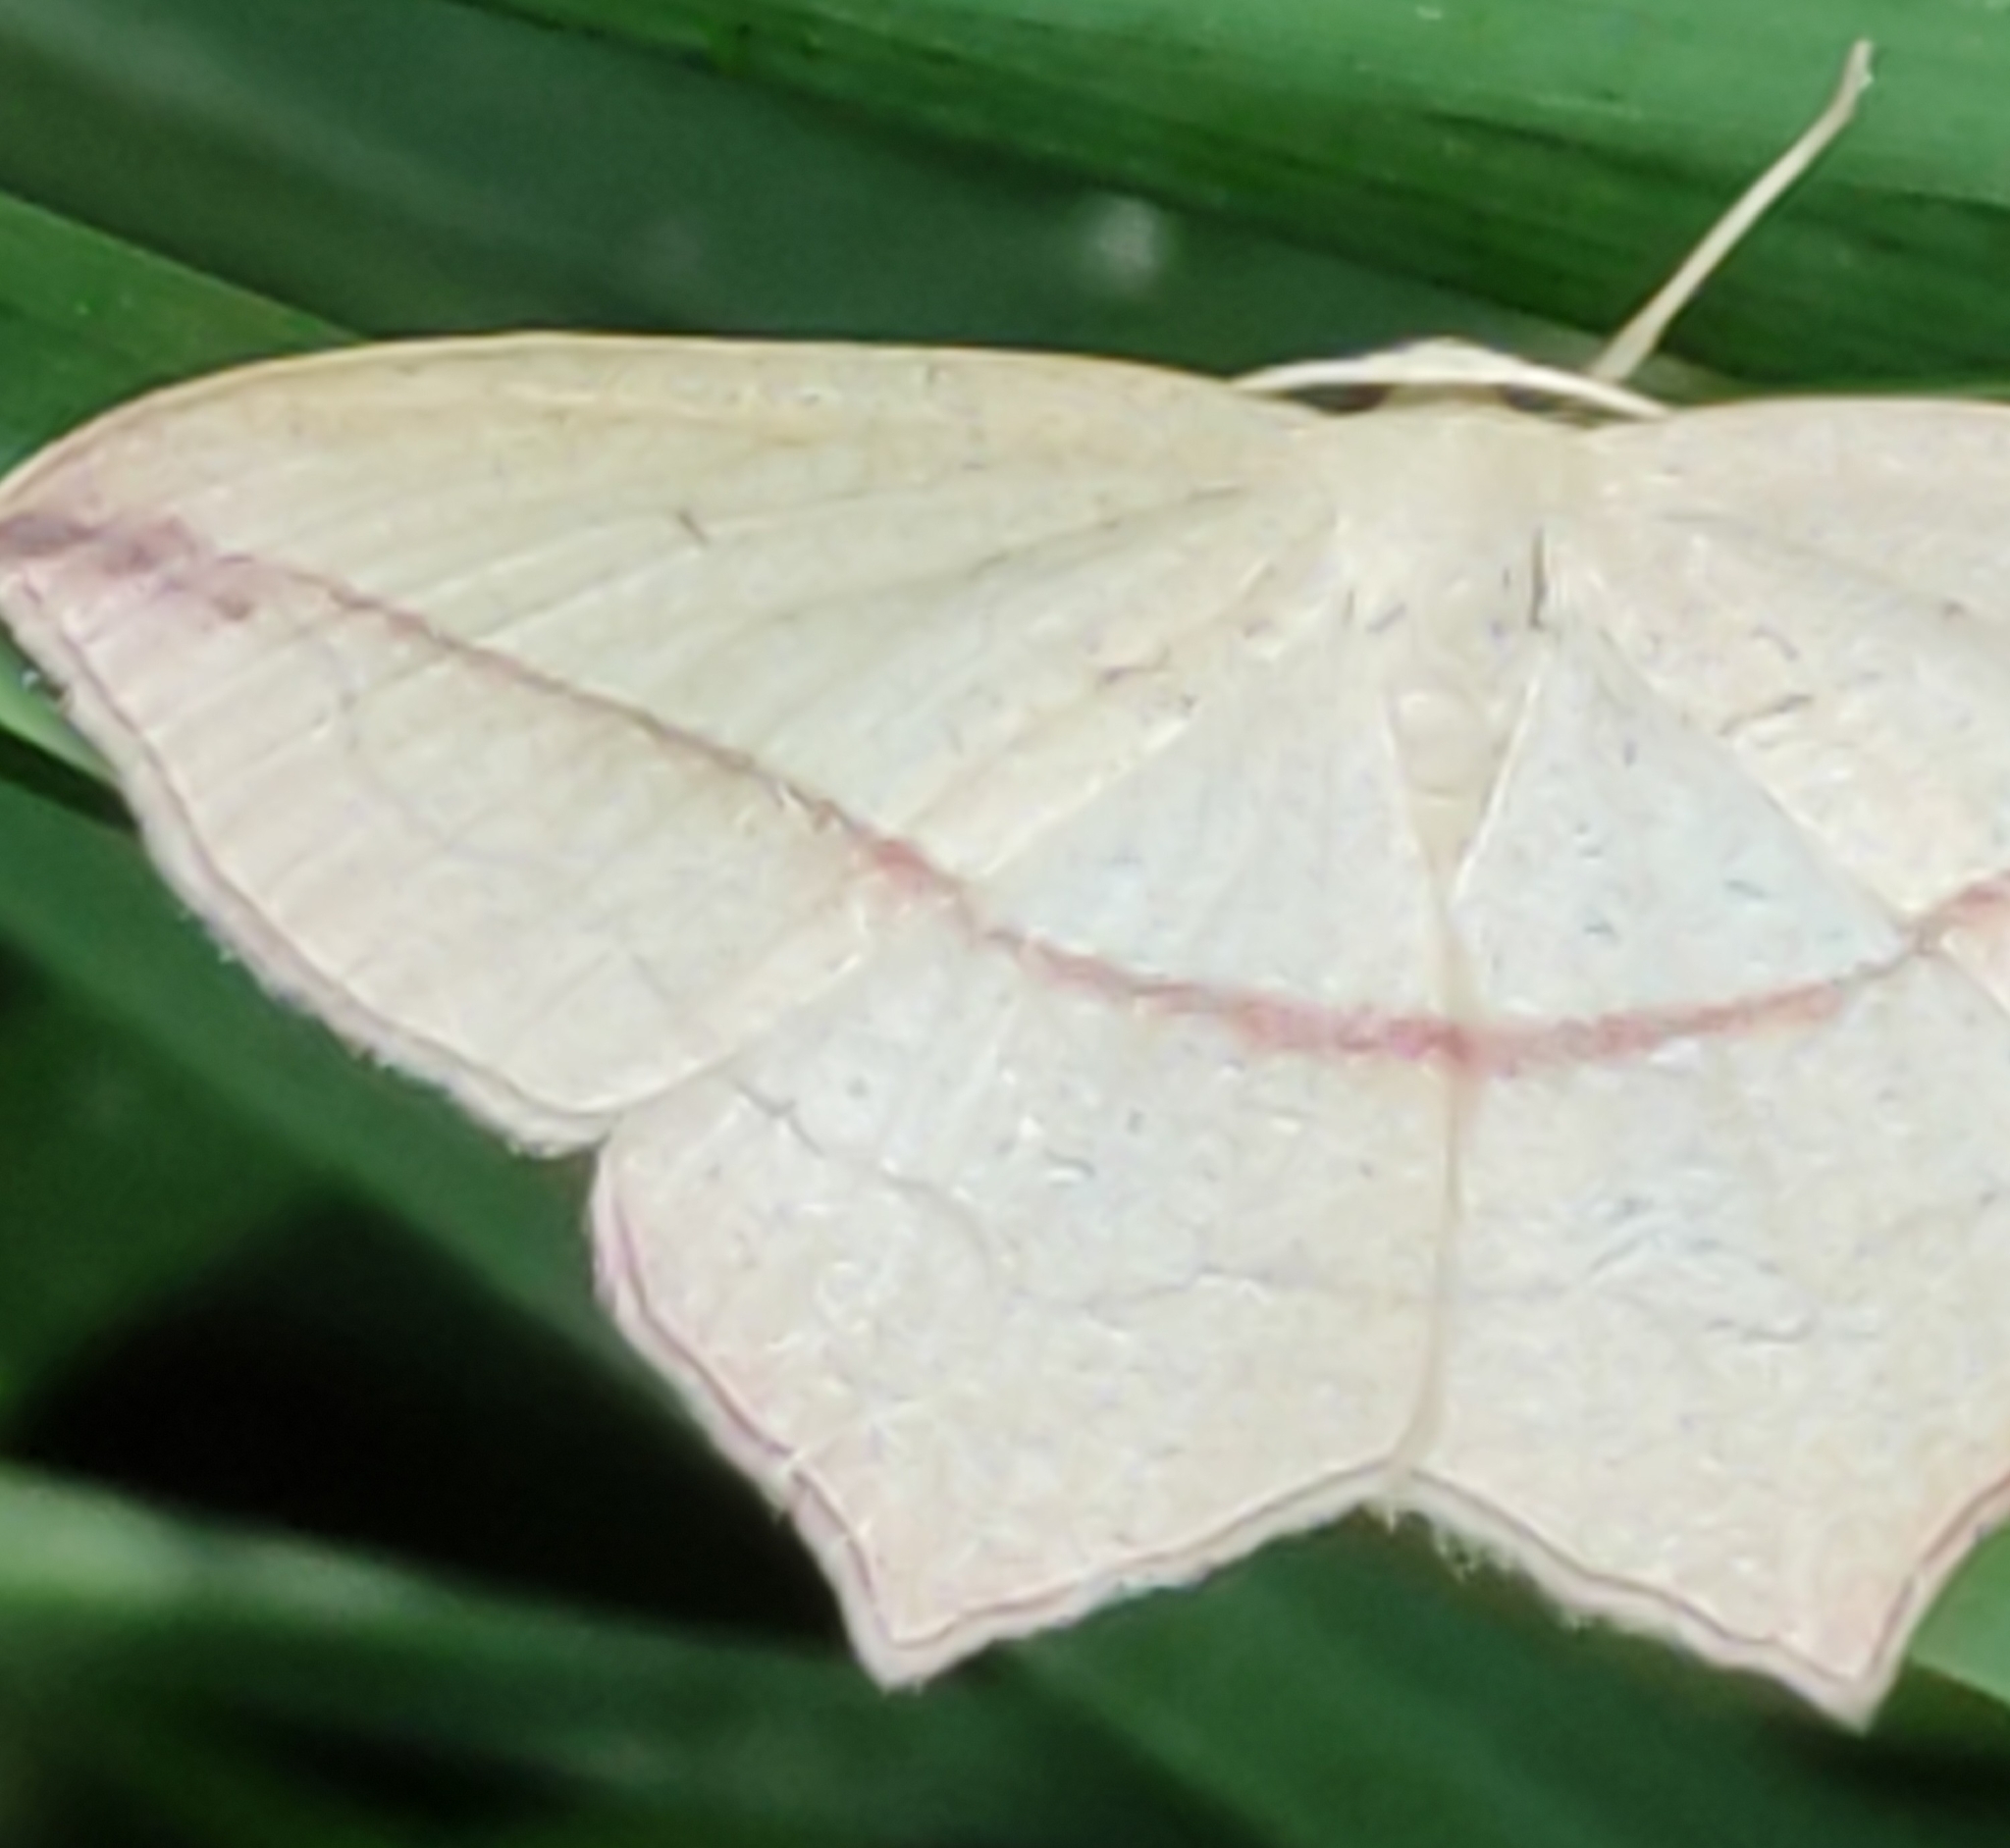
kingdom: Animalia
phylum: Arthropoda
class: Insecta
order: Lepidoptera
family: Geometridae
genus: Timandra
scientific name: Timandra comae
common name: Blood-vein
